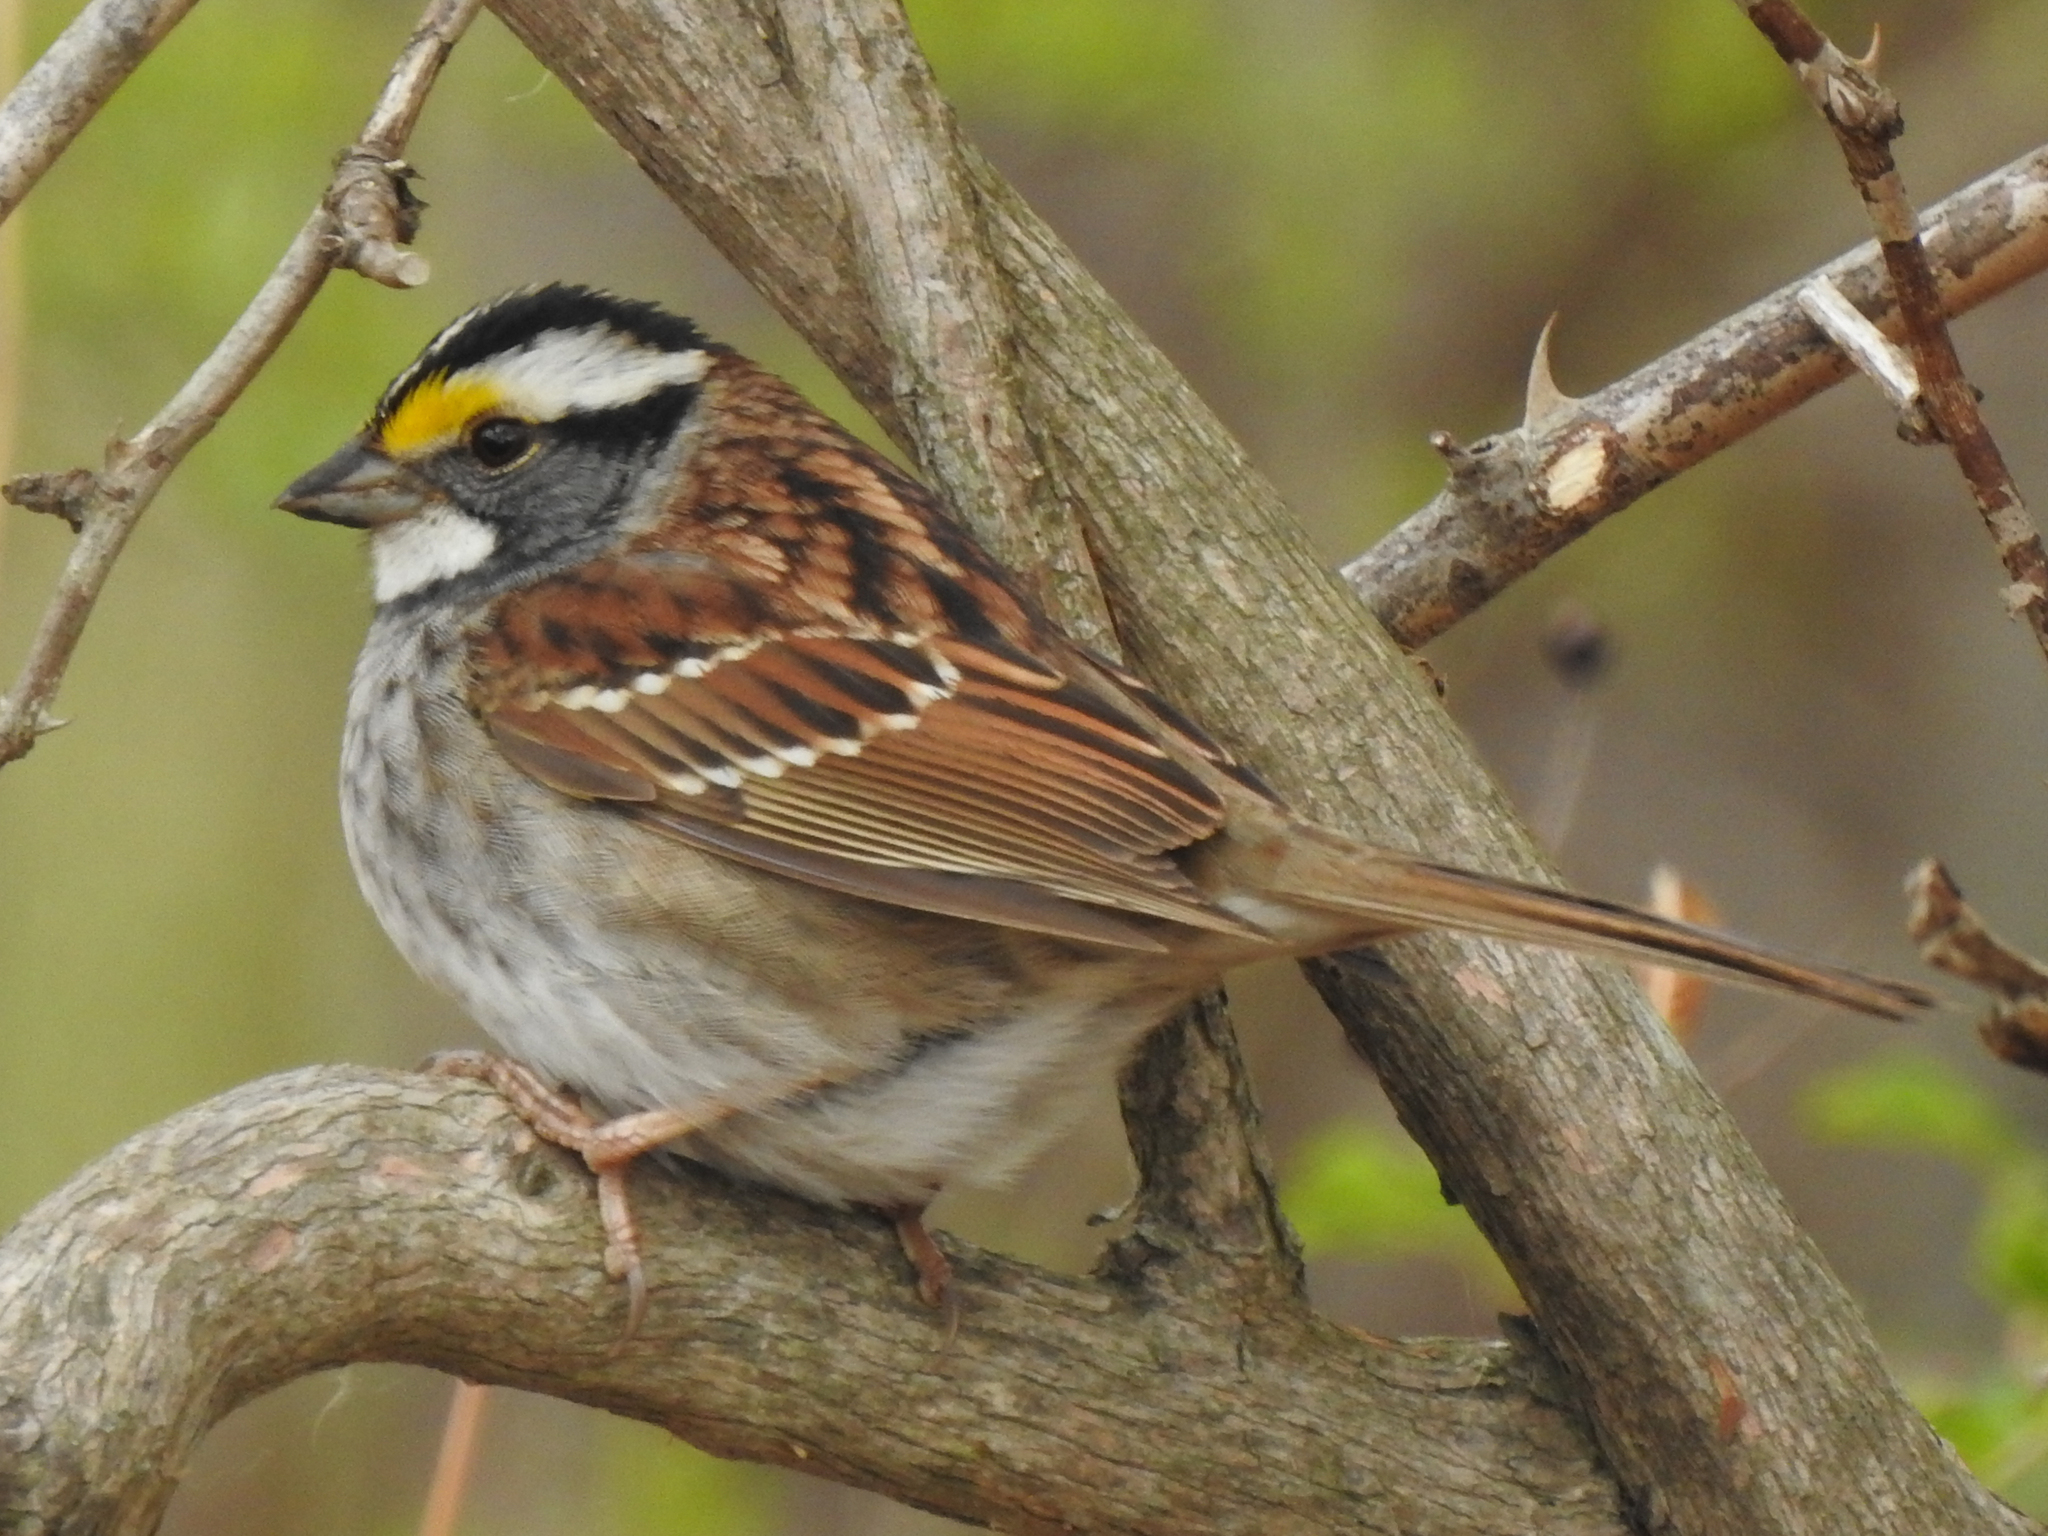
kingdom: Animalia
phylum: Chordata
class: Aves
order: Passeriformes
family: Passerellidae
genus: Zonotrichia
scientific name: Zonotrichia albicollis
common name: White-throated sparrow
